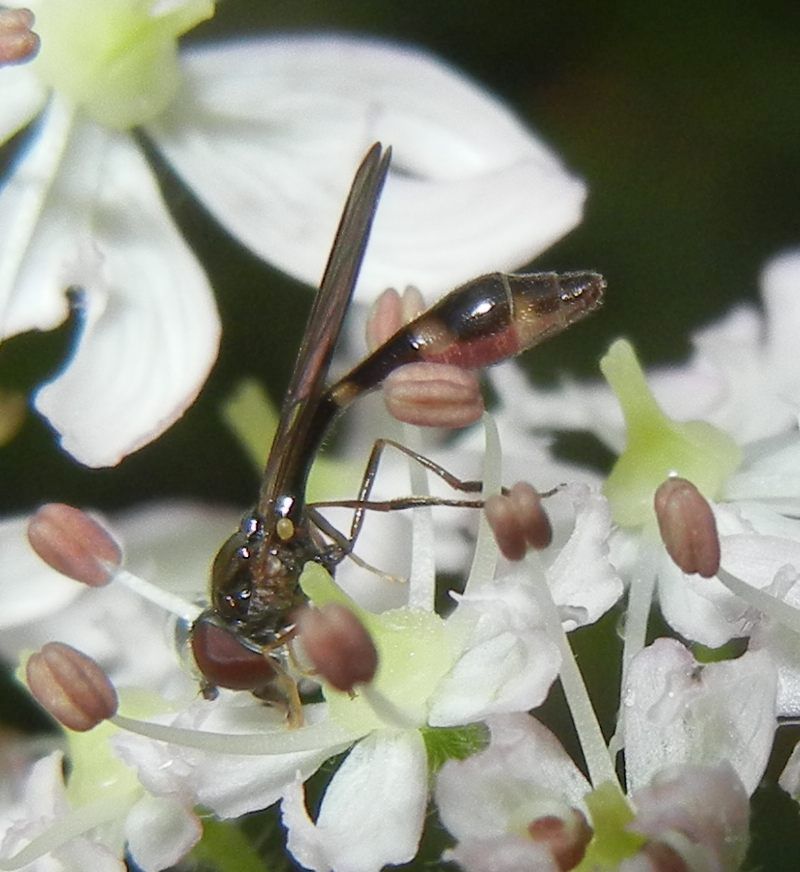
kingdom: Animalia
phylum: Arthropoda
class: Insecta
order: Diptera
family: Syrphidae
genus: Baccha
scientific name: Baccha elongata
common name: Common dainty
